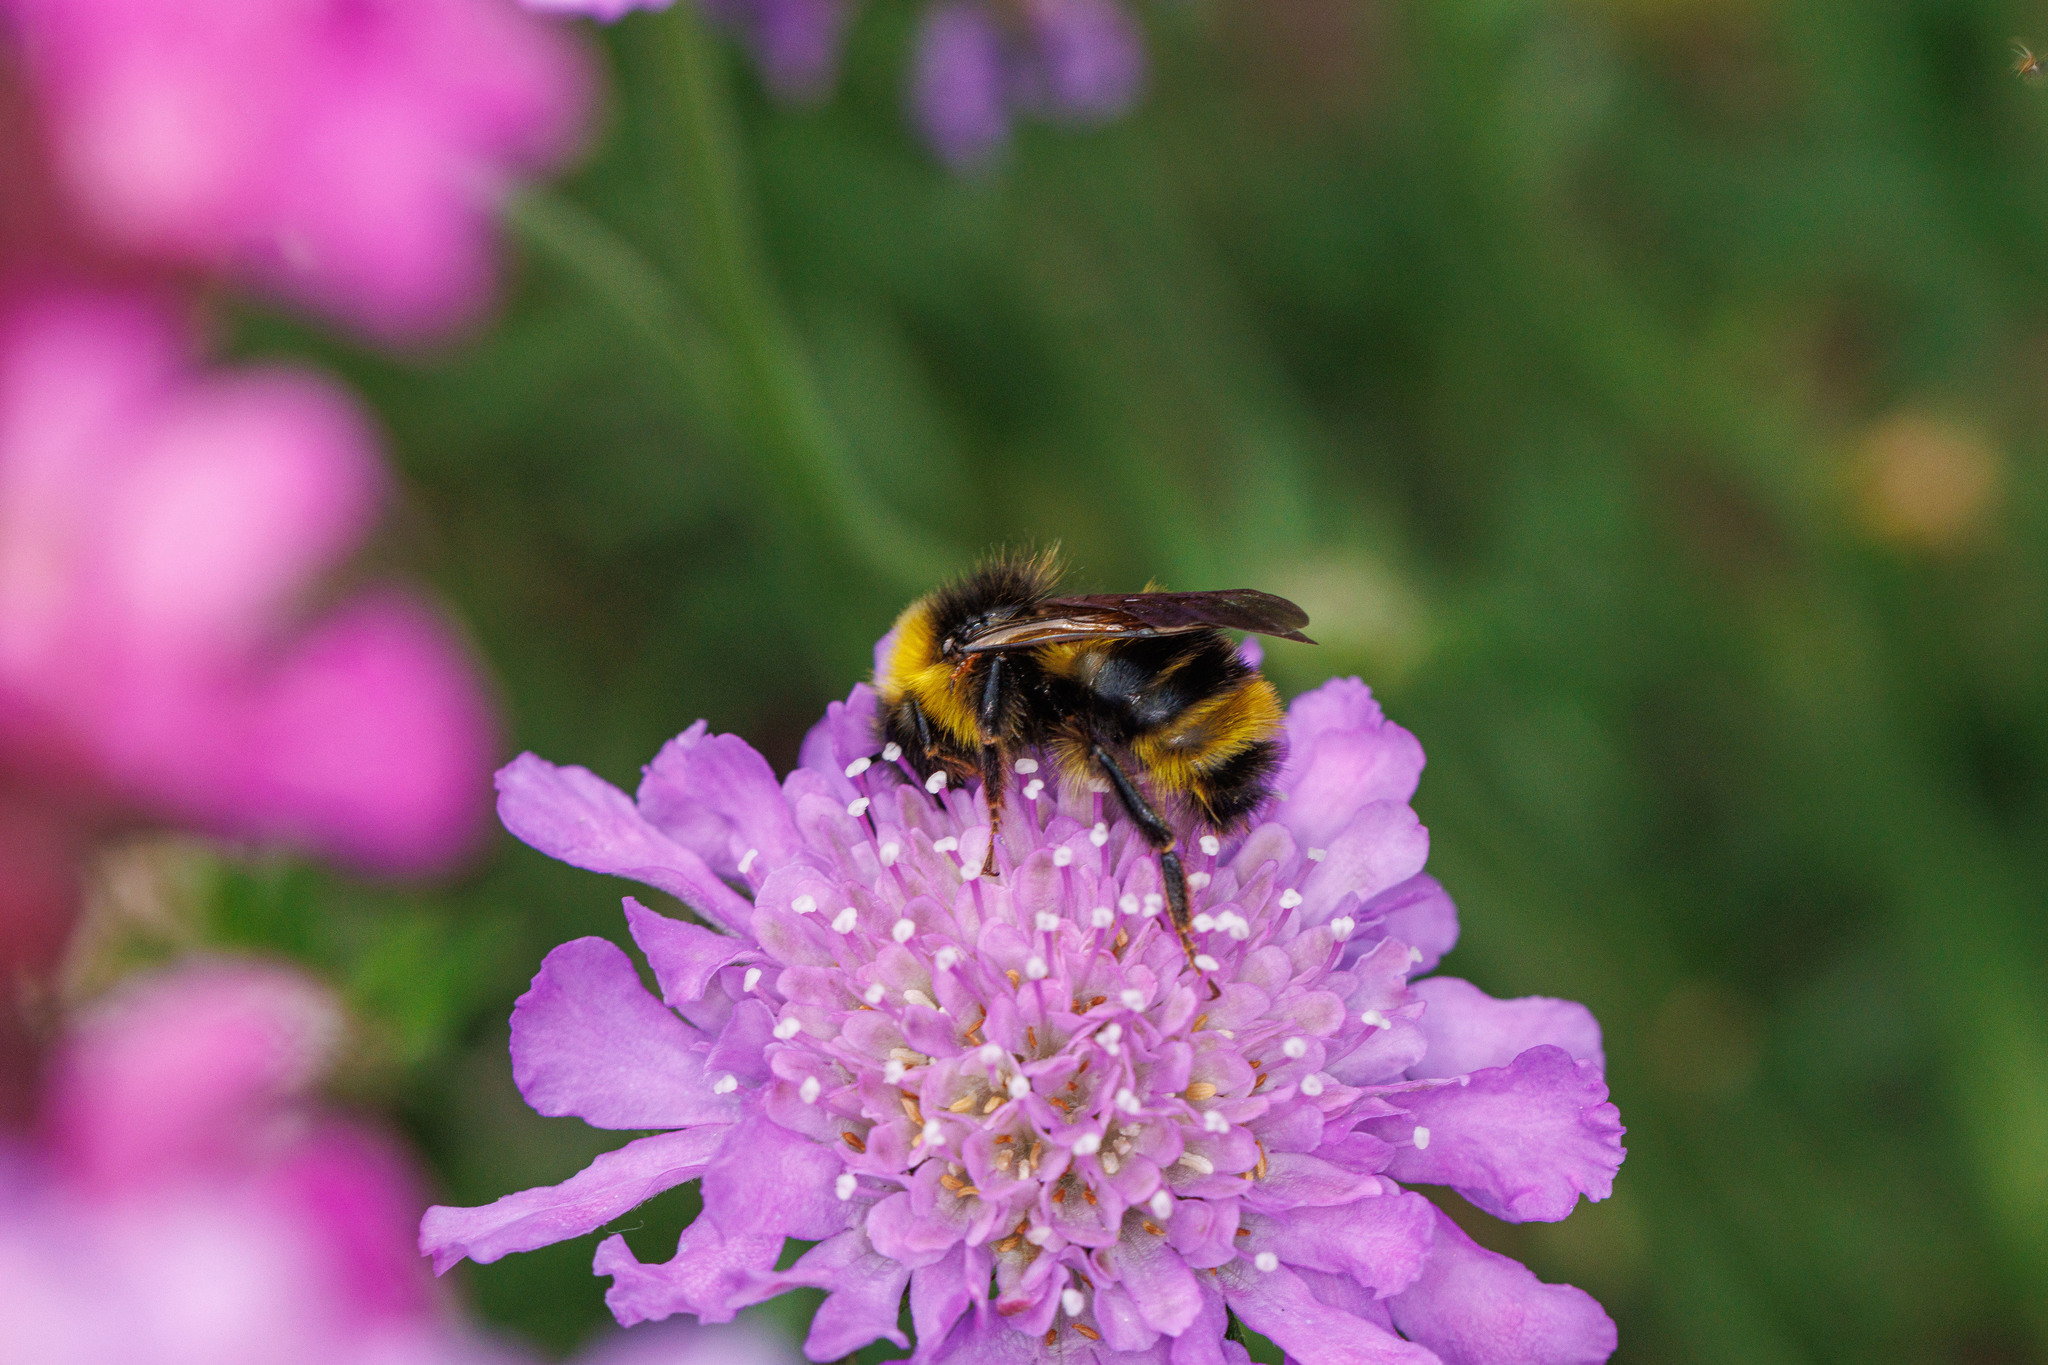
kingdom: Animalia
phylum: Arthropoda
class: Insecta
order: Hymenoptera
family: Apidae
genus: Bombus
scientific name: Bombus flavidus
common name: Fernald cuckoo bumble bee
